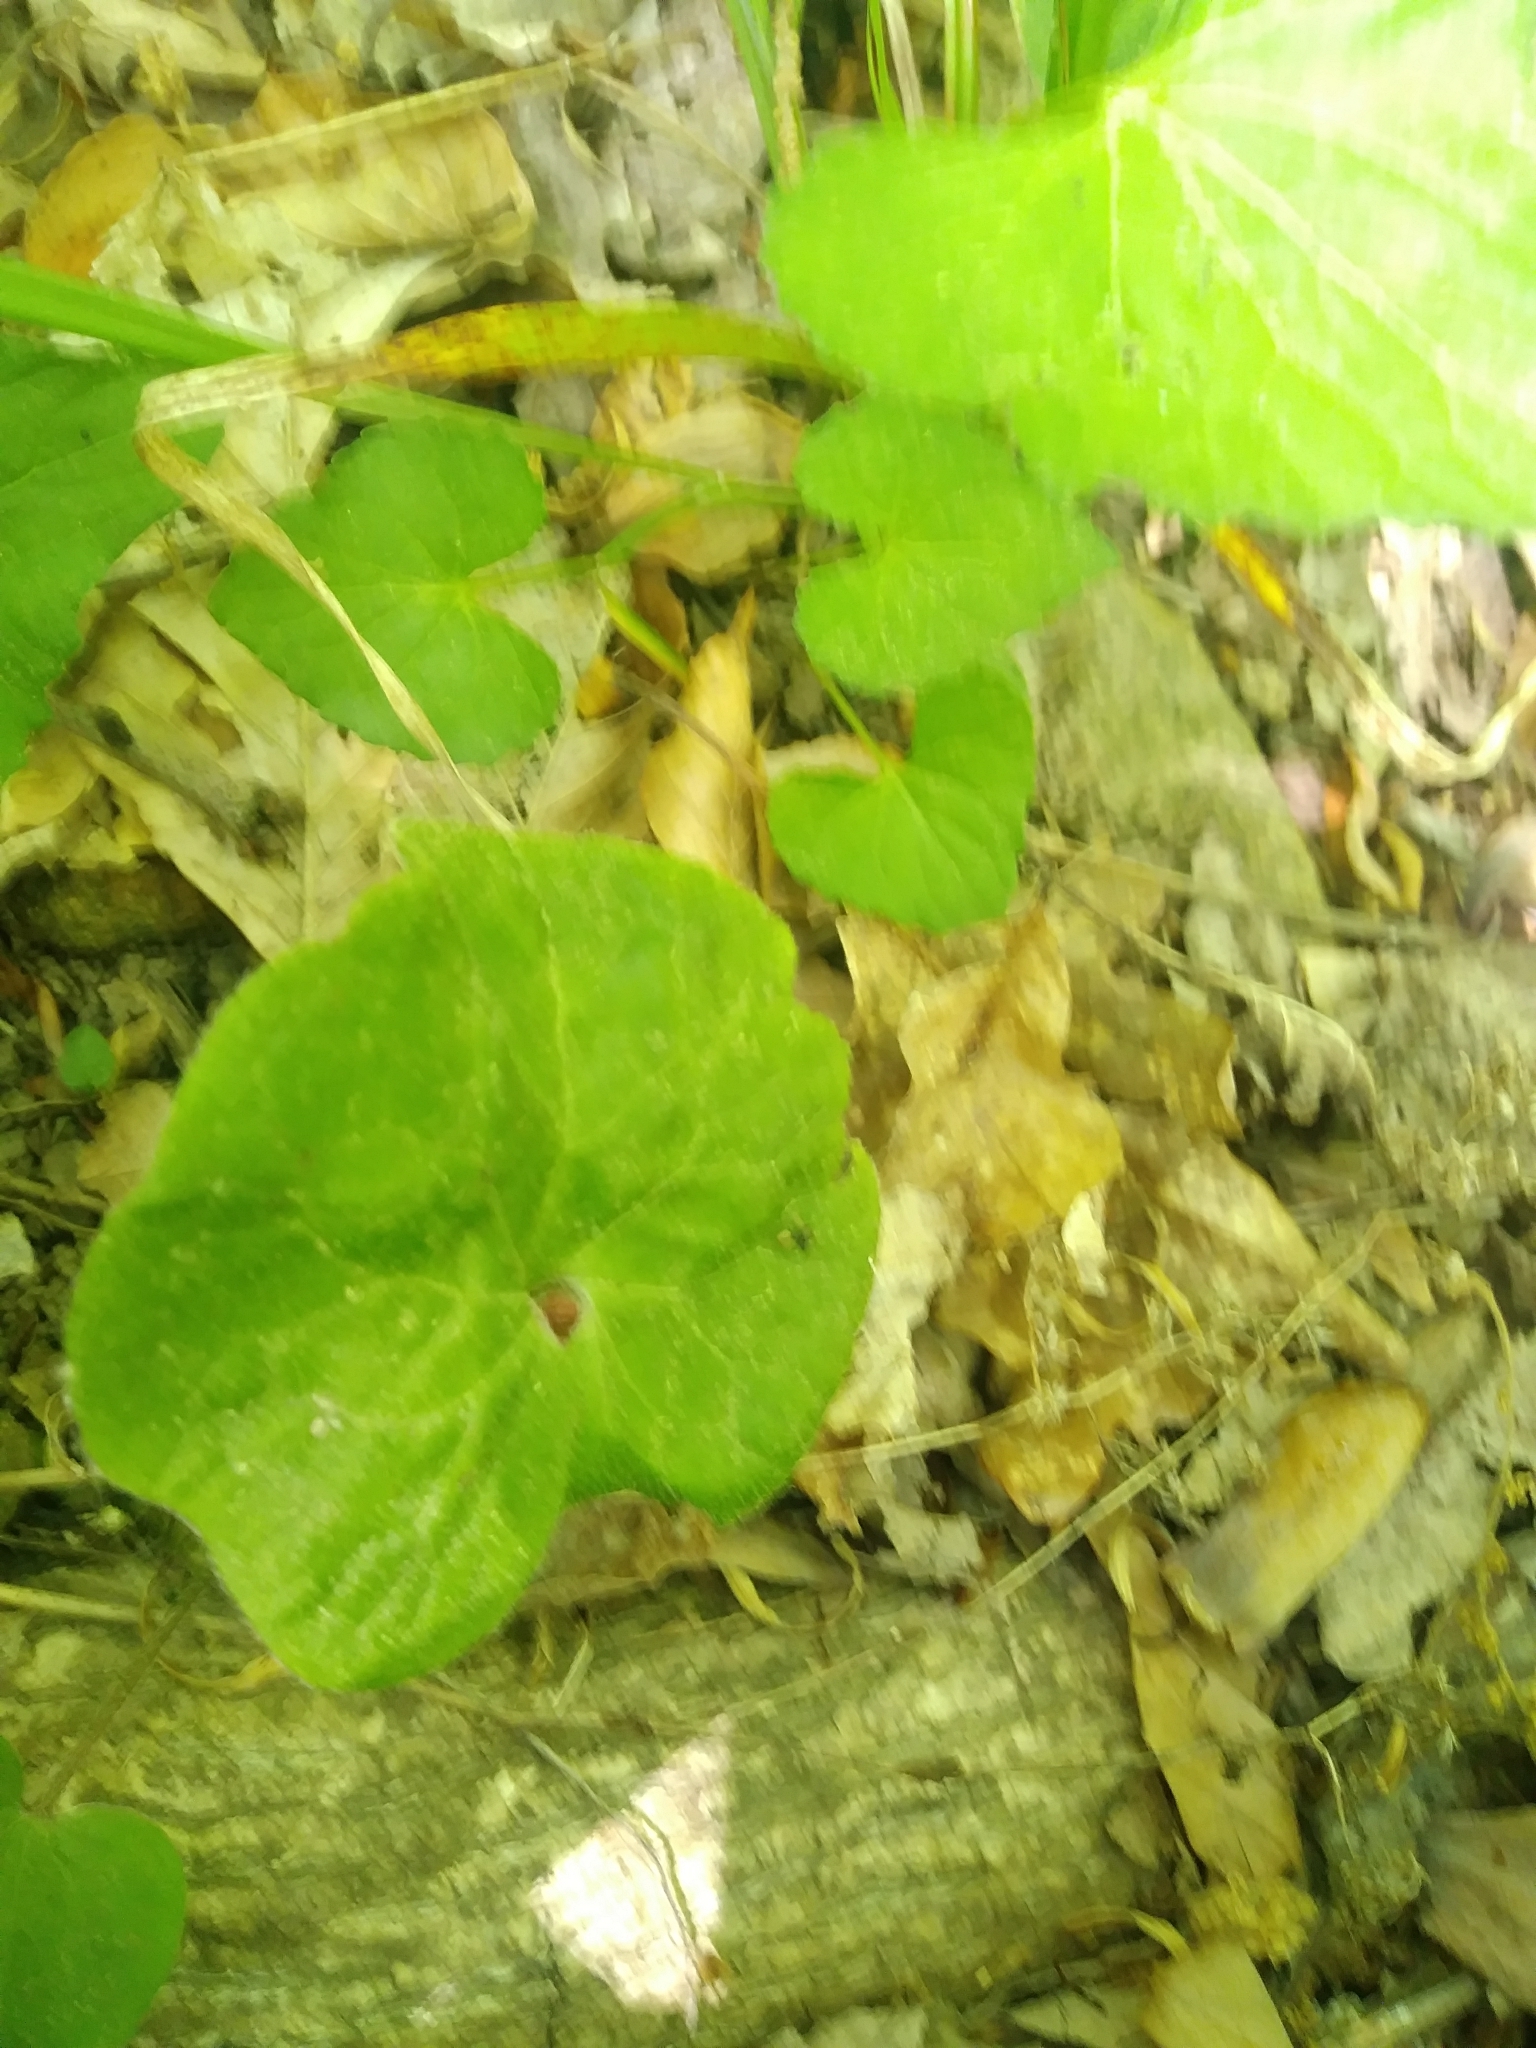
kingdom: Plantae
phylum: Tracheophyta
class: Magnoliopsida
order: Piperales
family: Aristolochiaceae
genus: Asarum
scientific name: Asarum canadense
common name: Wild ginger
